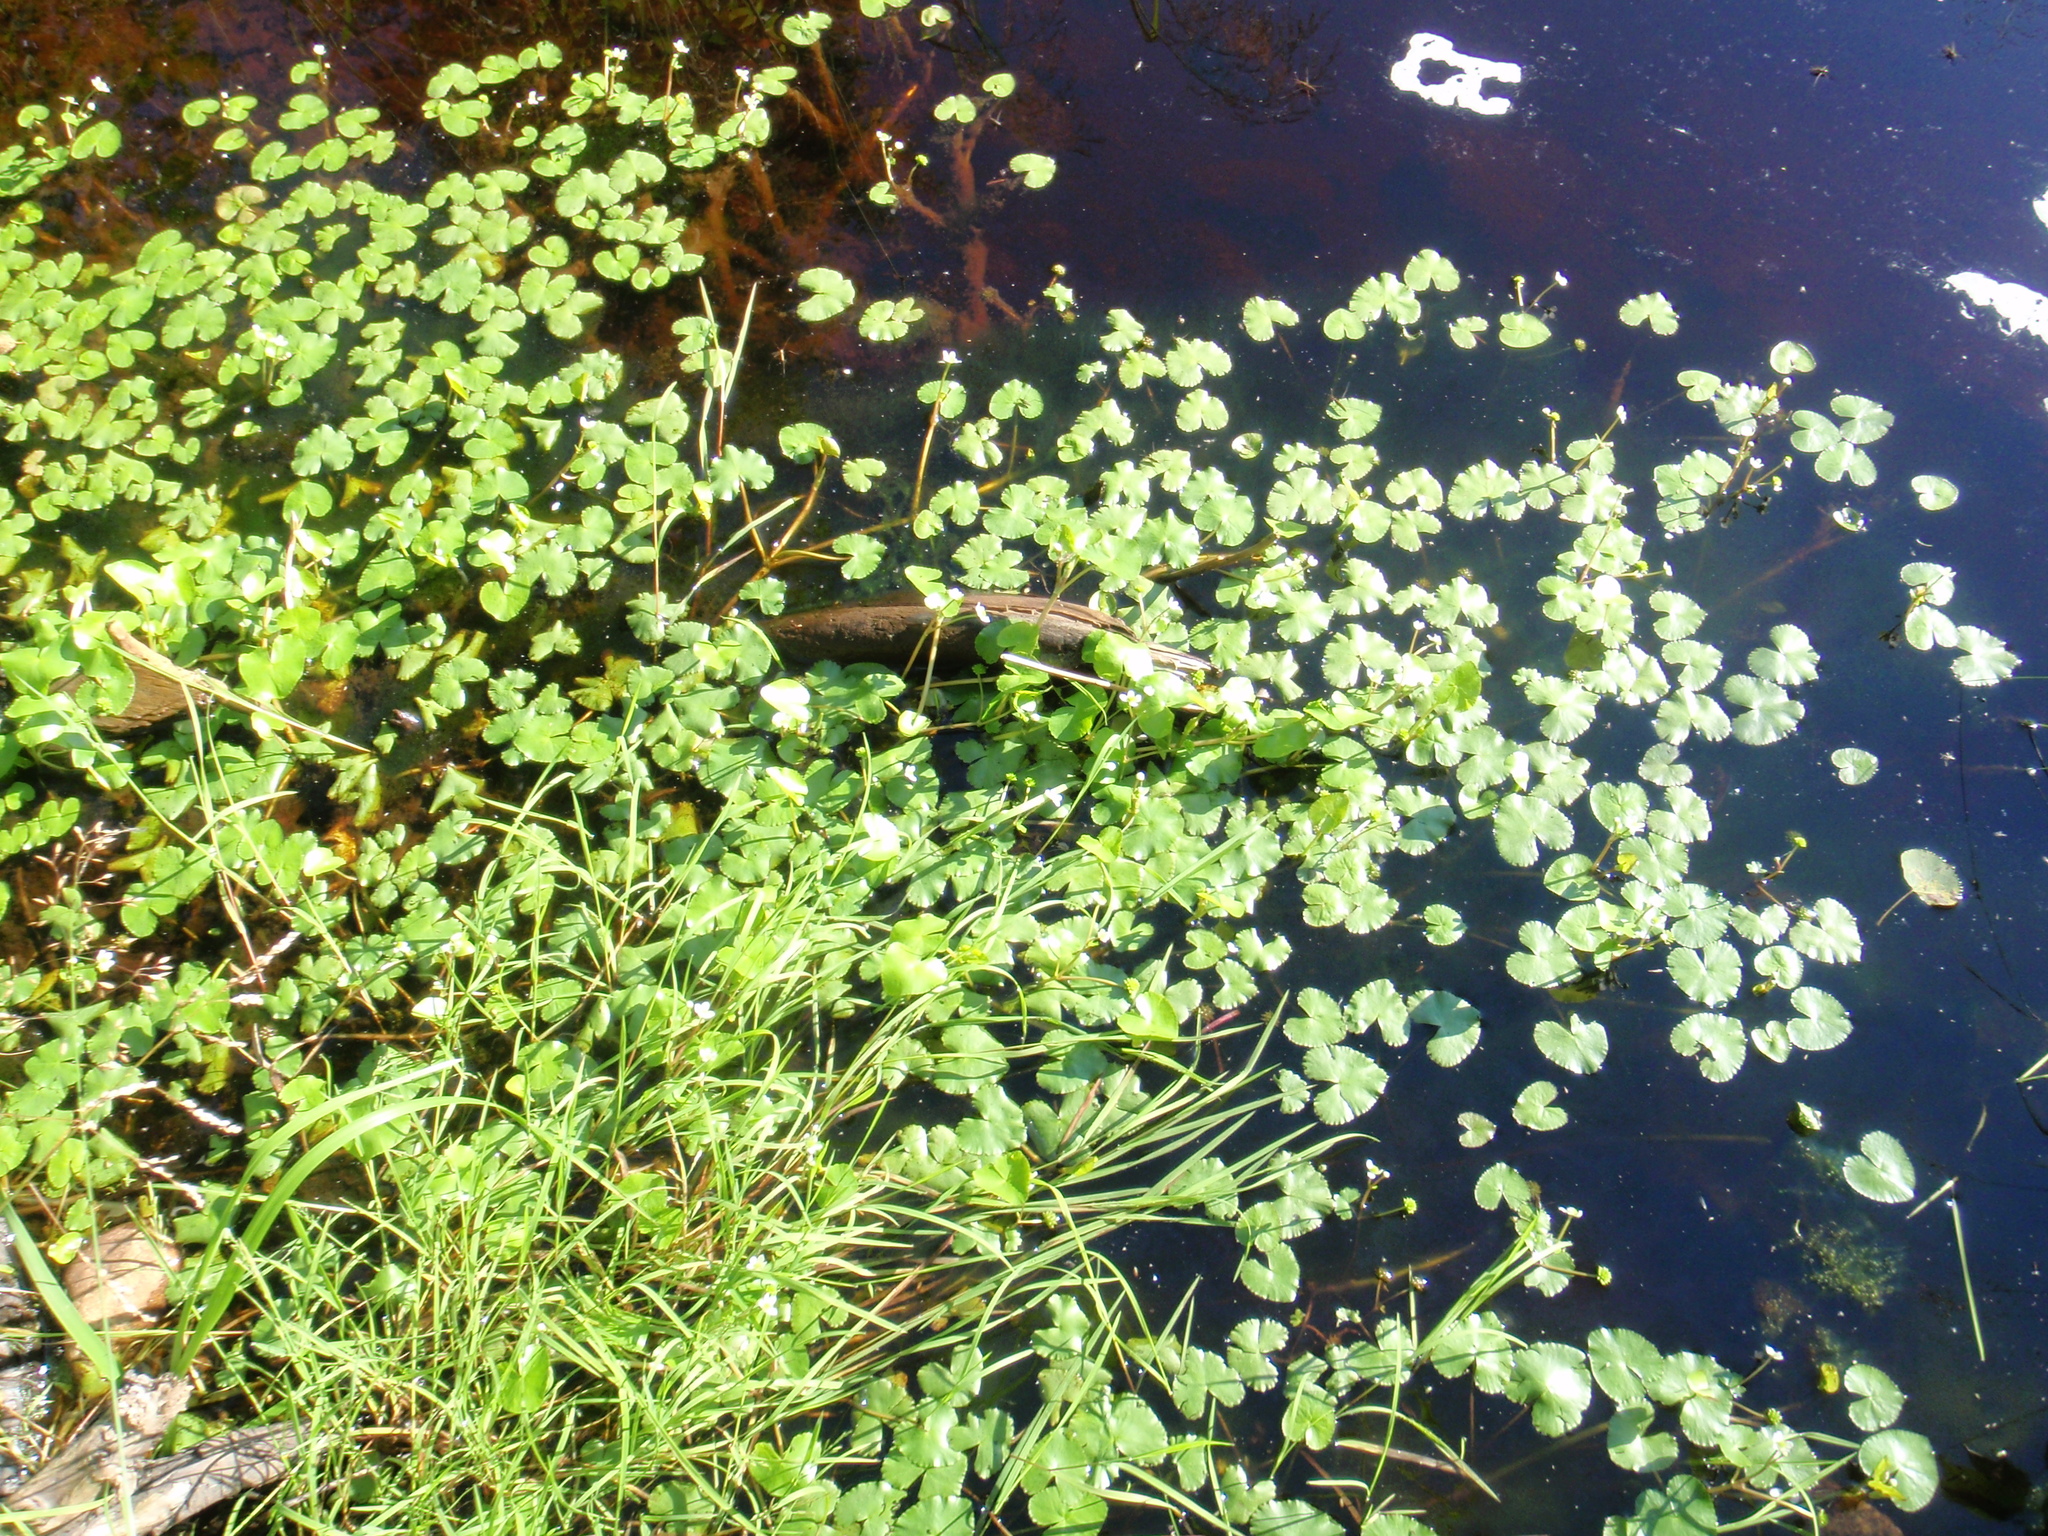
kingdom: Plantae
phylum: Tracheophyta
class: Magnoliopsida
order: Ranunculales
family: Ranunculaceae
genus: Caltha
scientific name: Caltha natans
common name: Floating marsh marigold
